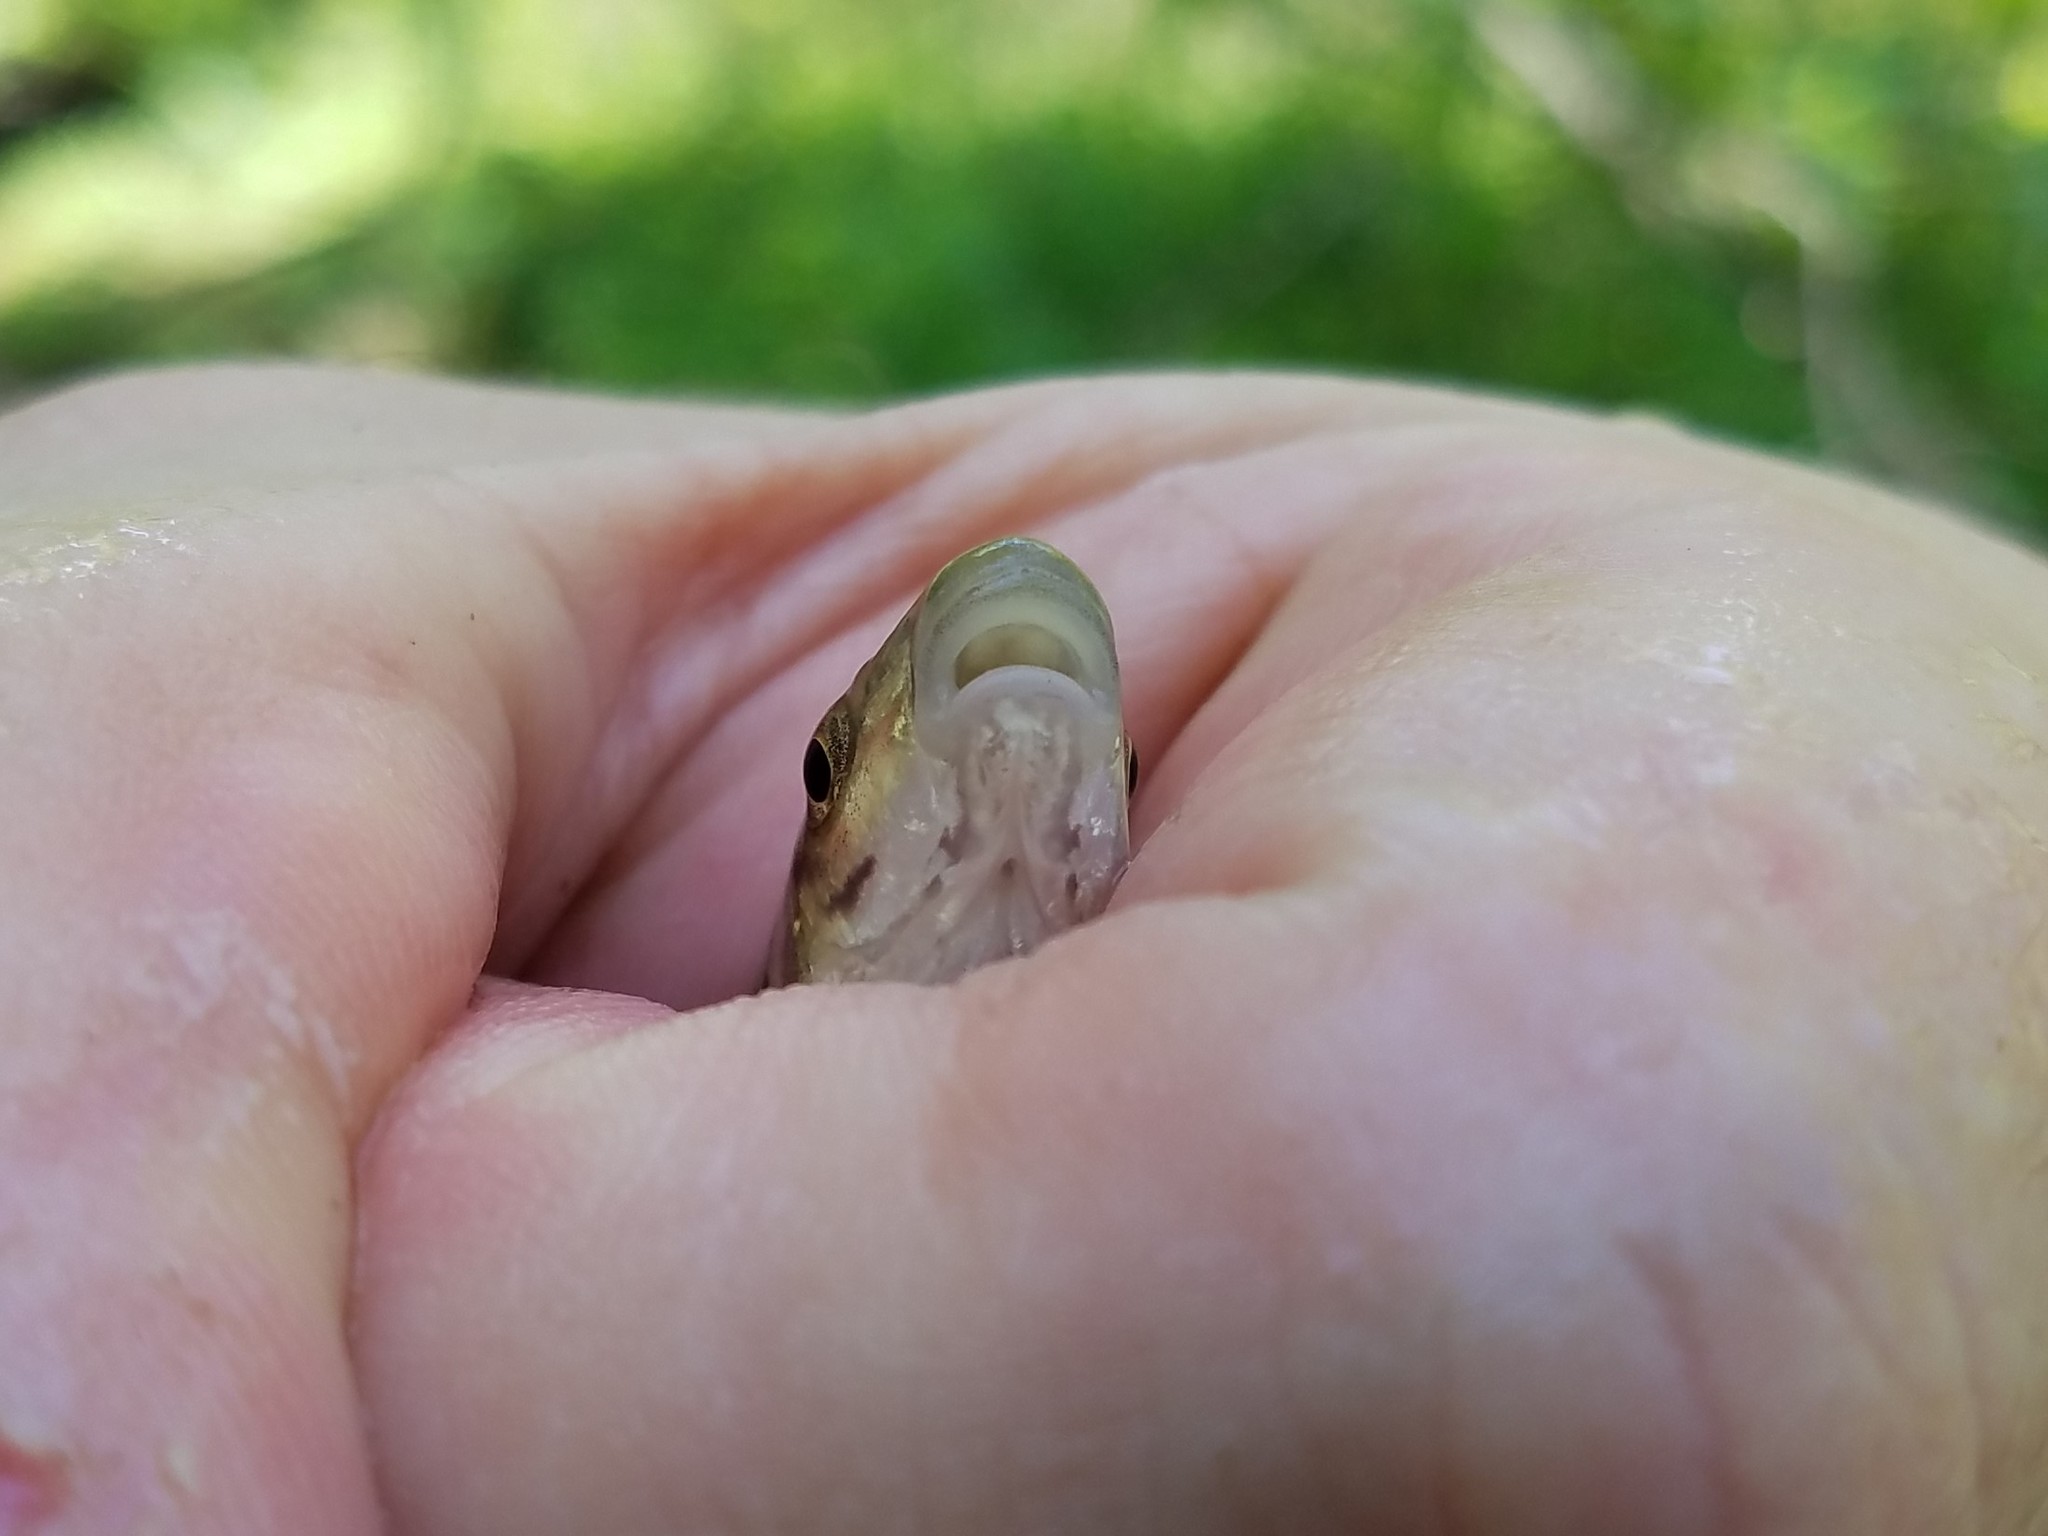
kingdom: Animalia
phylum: Chordata
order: Cypriniformes
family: Cyprinidae
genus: Campostoma
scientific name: Campostoma oligolepis
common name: Largescale stoneroller
